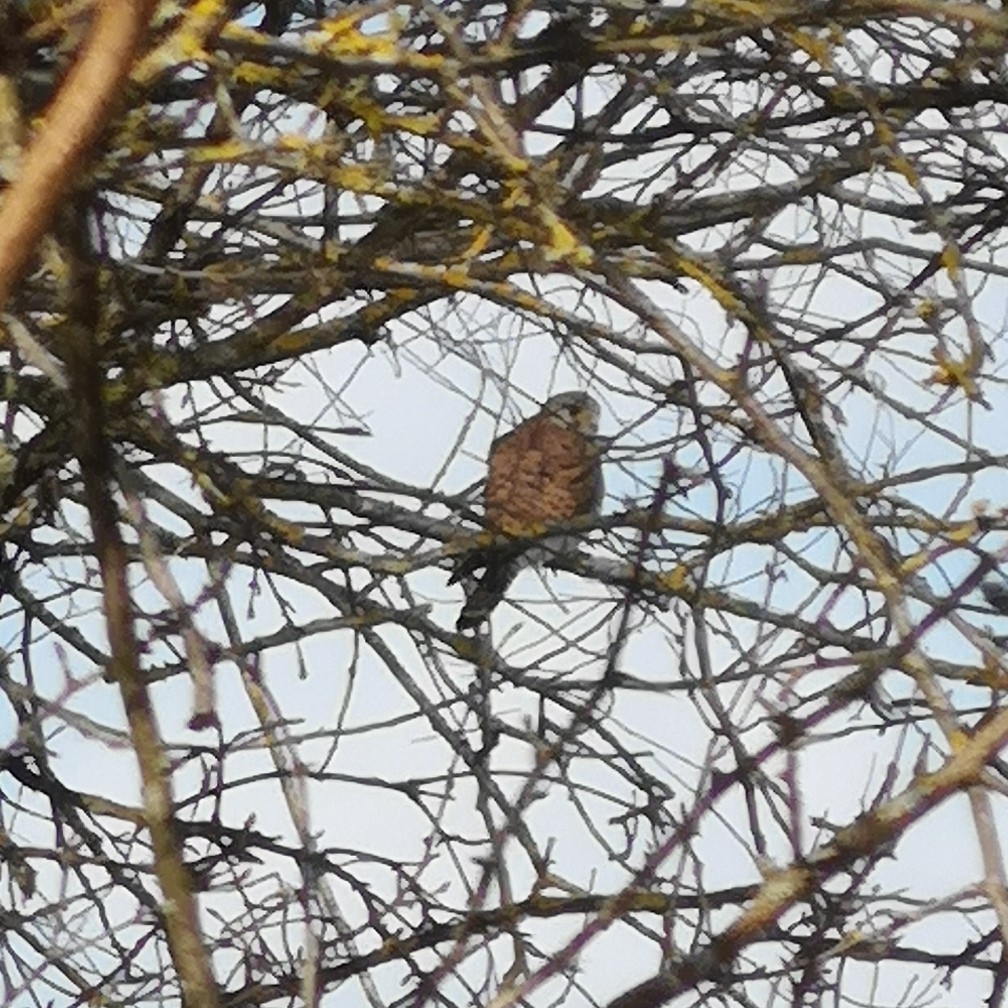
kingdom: Animalia
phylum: Chordata
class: Aves
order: Falconiformes
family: Falconidae
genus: Falco
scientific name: Falco tinnunculus
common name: Common kestrel
